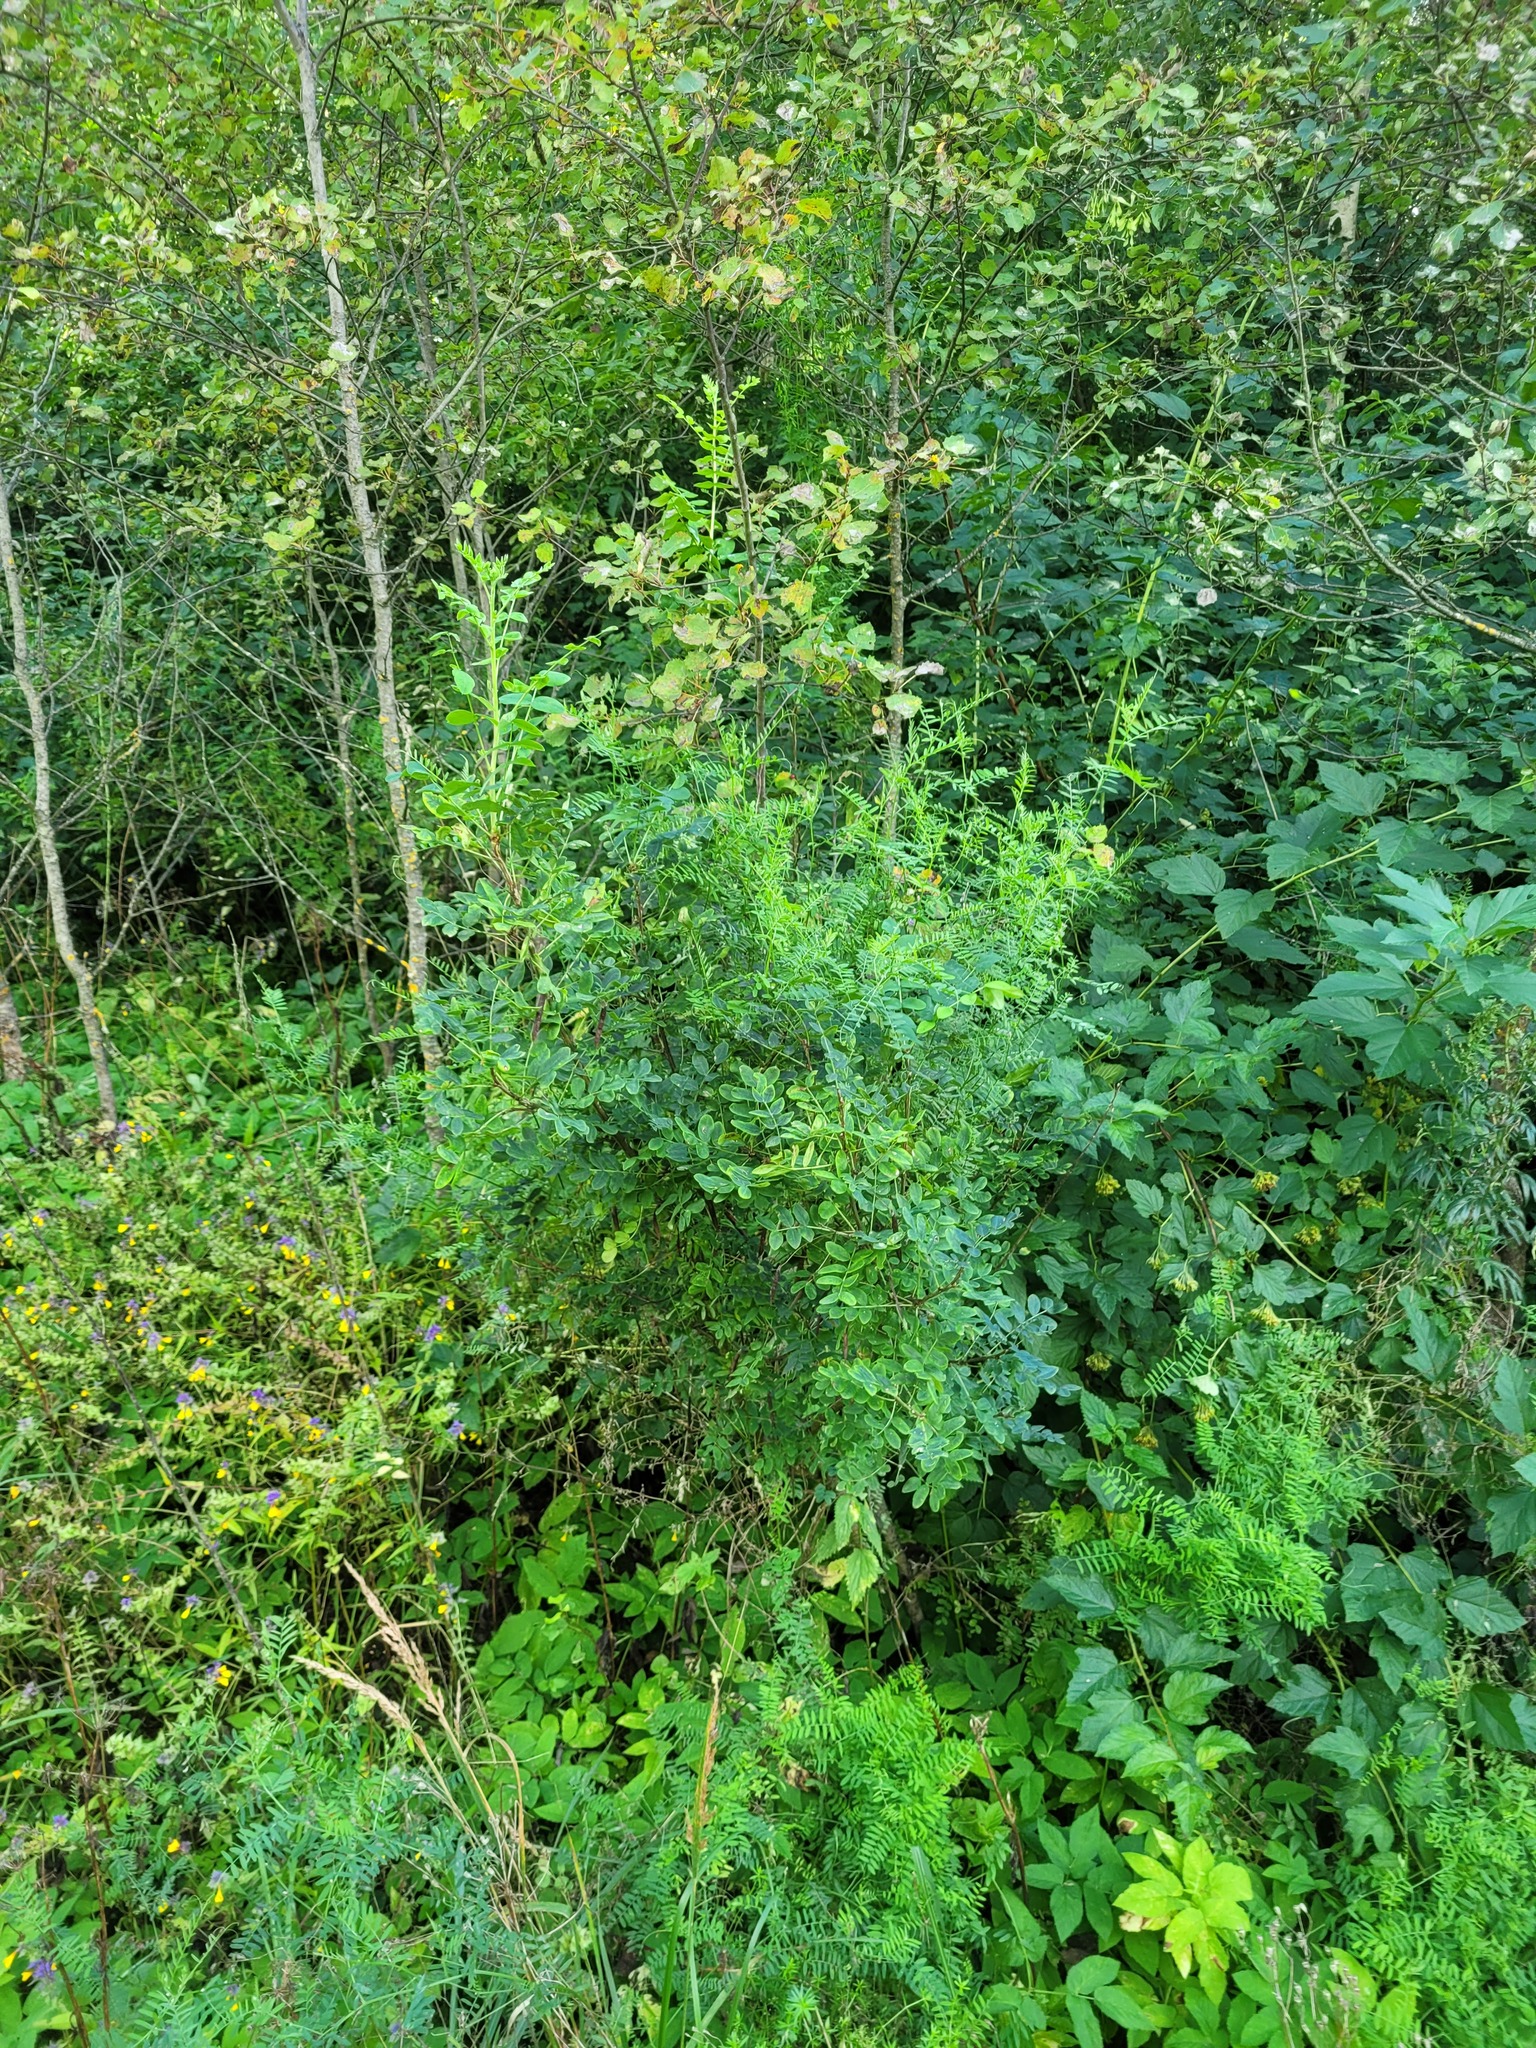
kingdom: Plantae
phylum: Tracheophyta
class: Magnoliopsida
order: Fabales
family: Fabaceae
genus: Caragana
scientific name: Caragana arborescens
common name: Siberian peashrub
